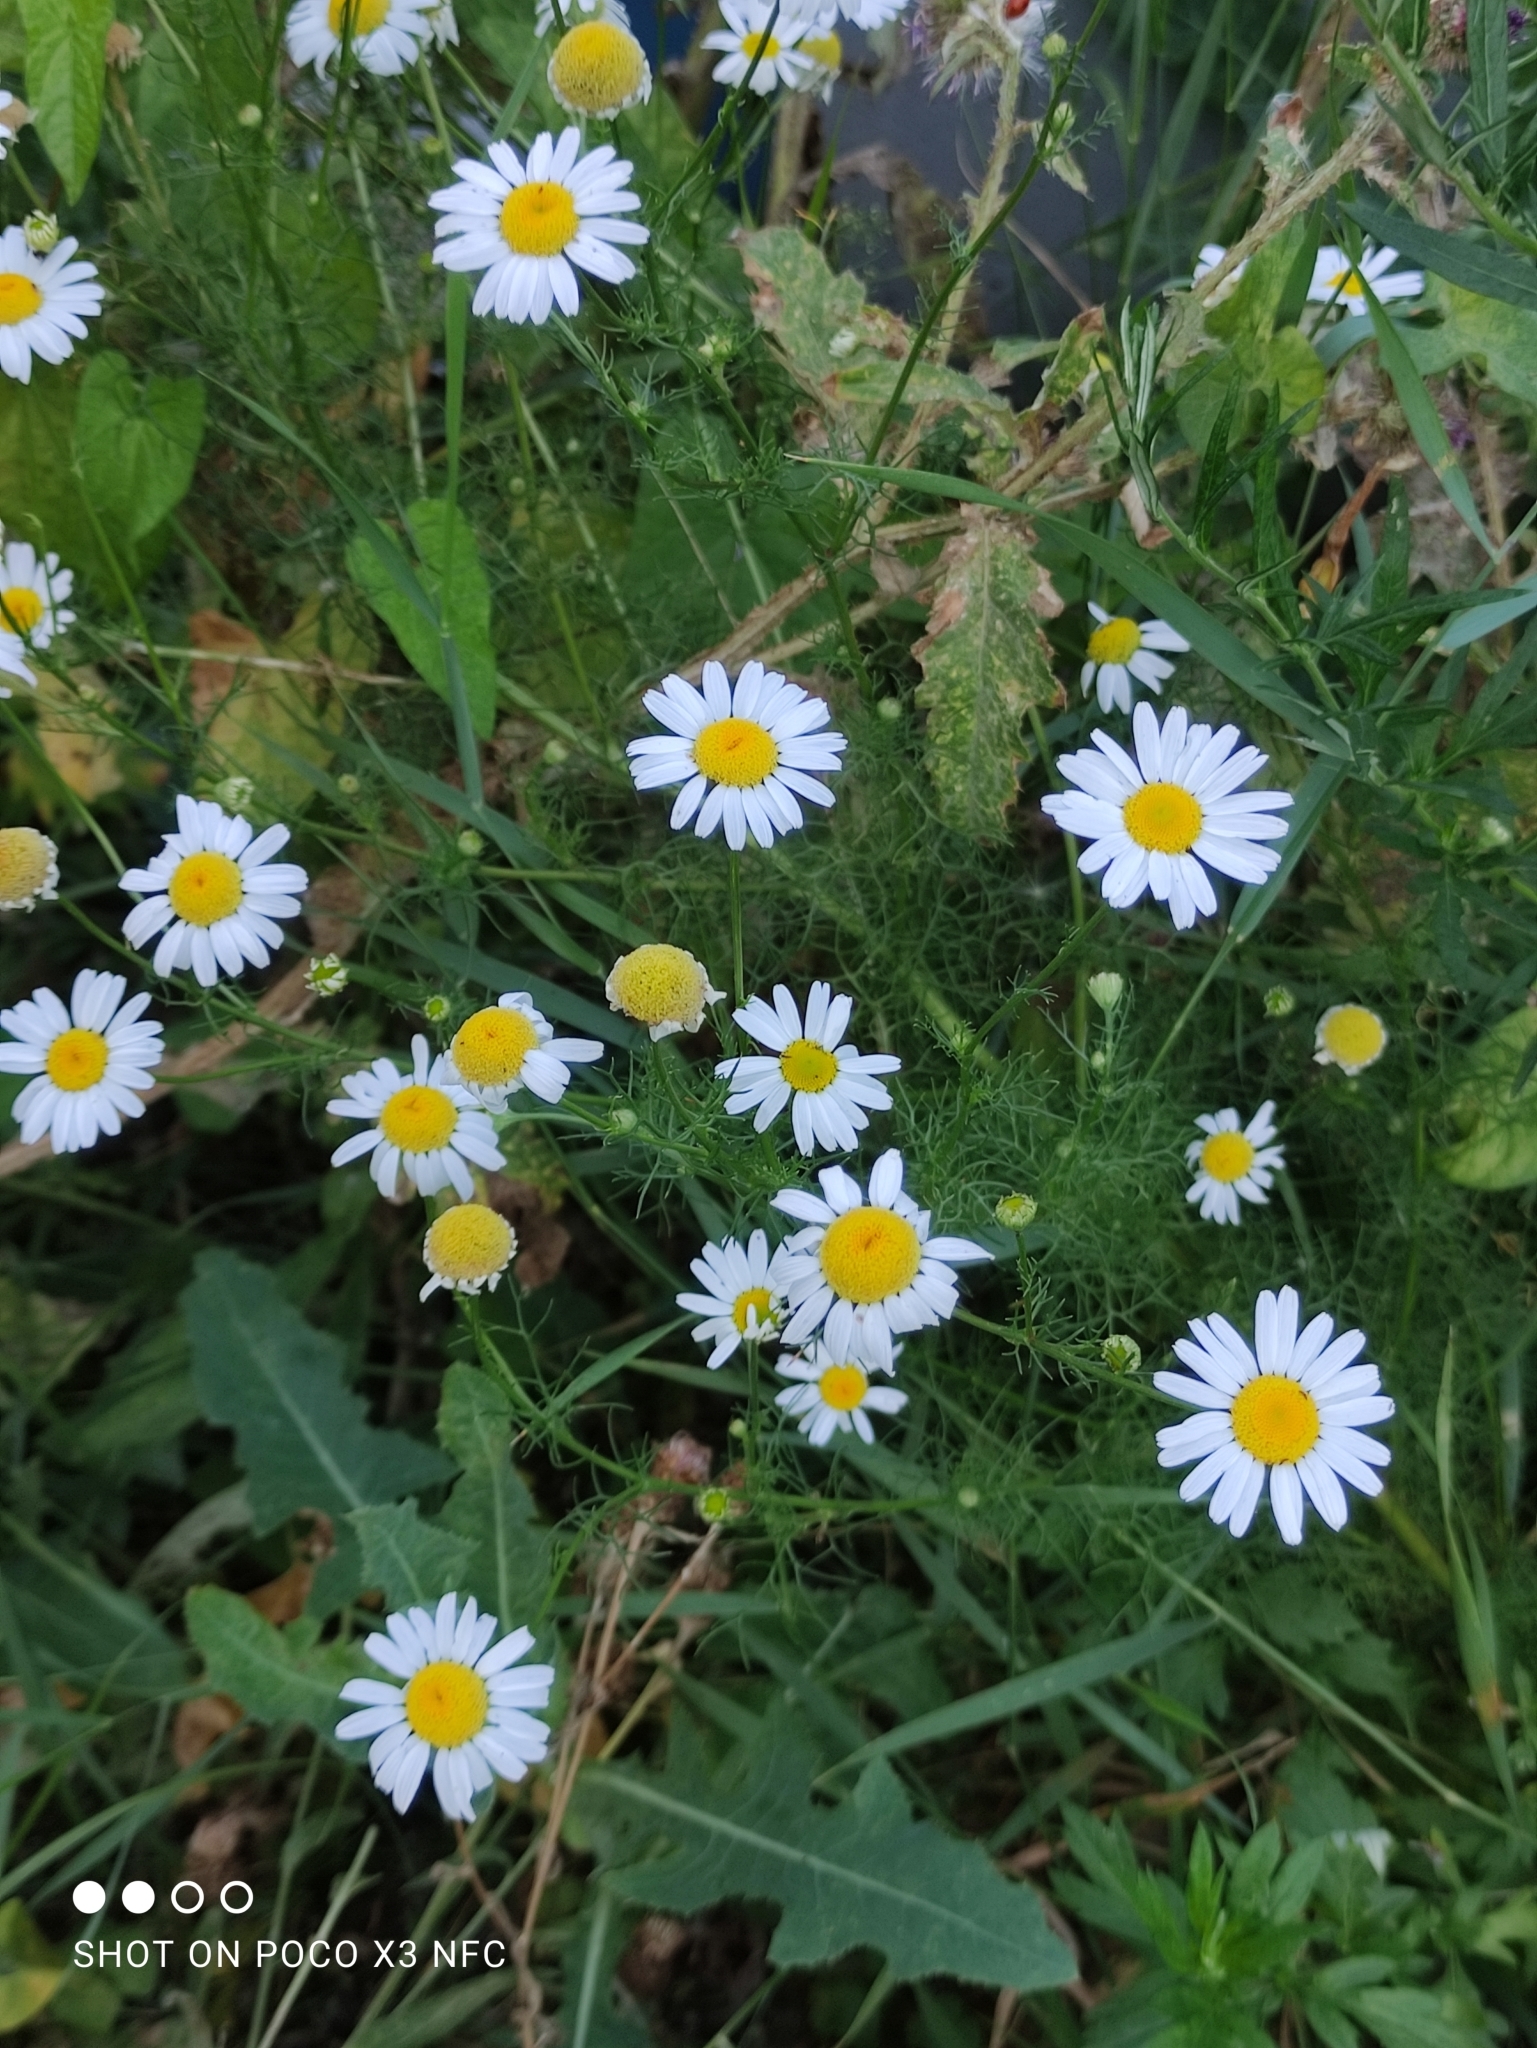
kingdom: Plantae
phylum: Tracheophyta
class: Magnoliopsida
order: Asterales
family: Asteraceae
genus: Tripleurospermum
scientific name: Tripleurospermum inodorum
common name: Scentless mayweed
